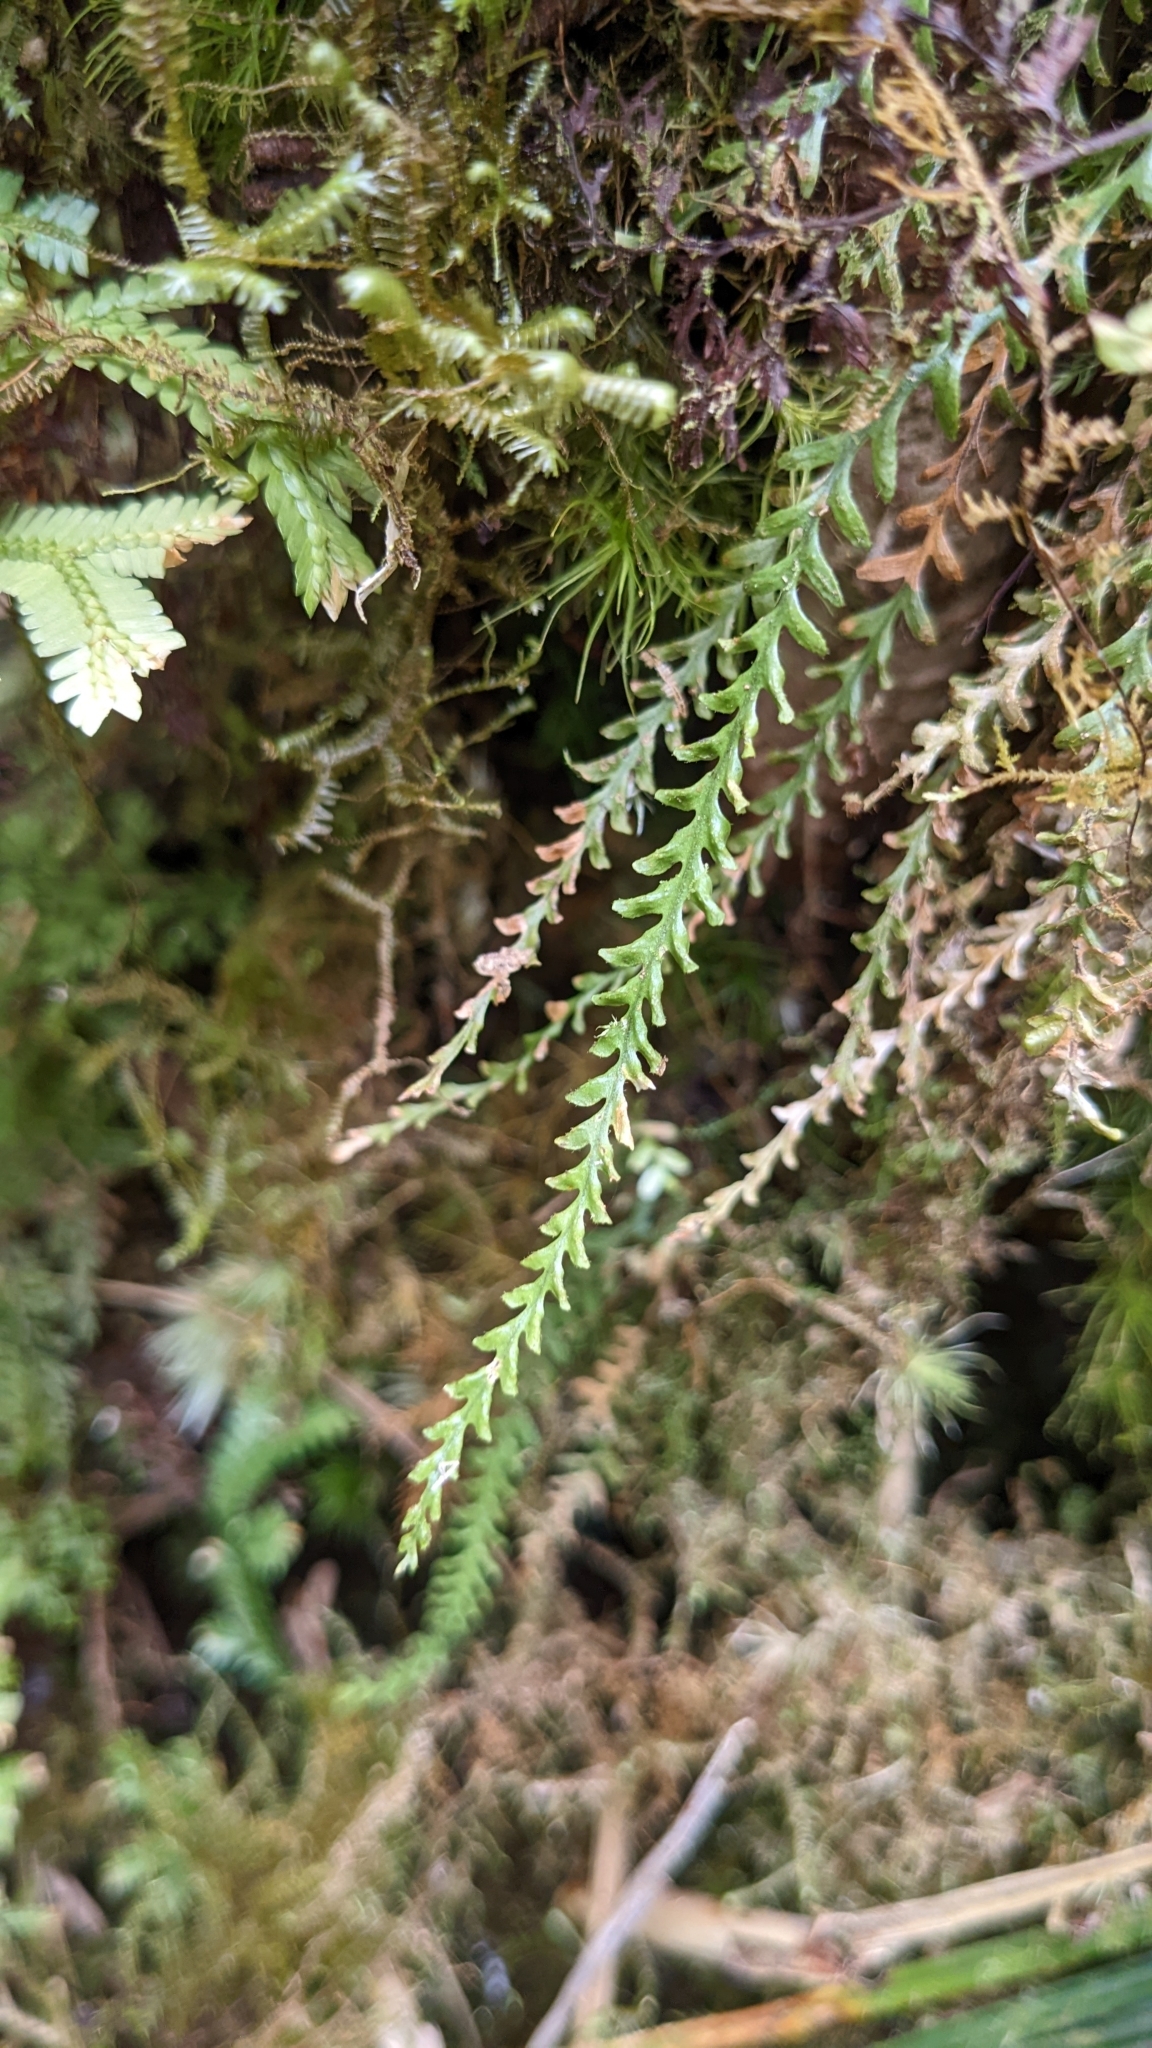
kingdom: Plantae
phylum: Tracheophyta
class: Polypodiopsida
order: Polypodiales
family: Polypodiaceae
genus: Calymmodon
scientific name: Calymmodon gracilis
